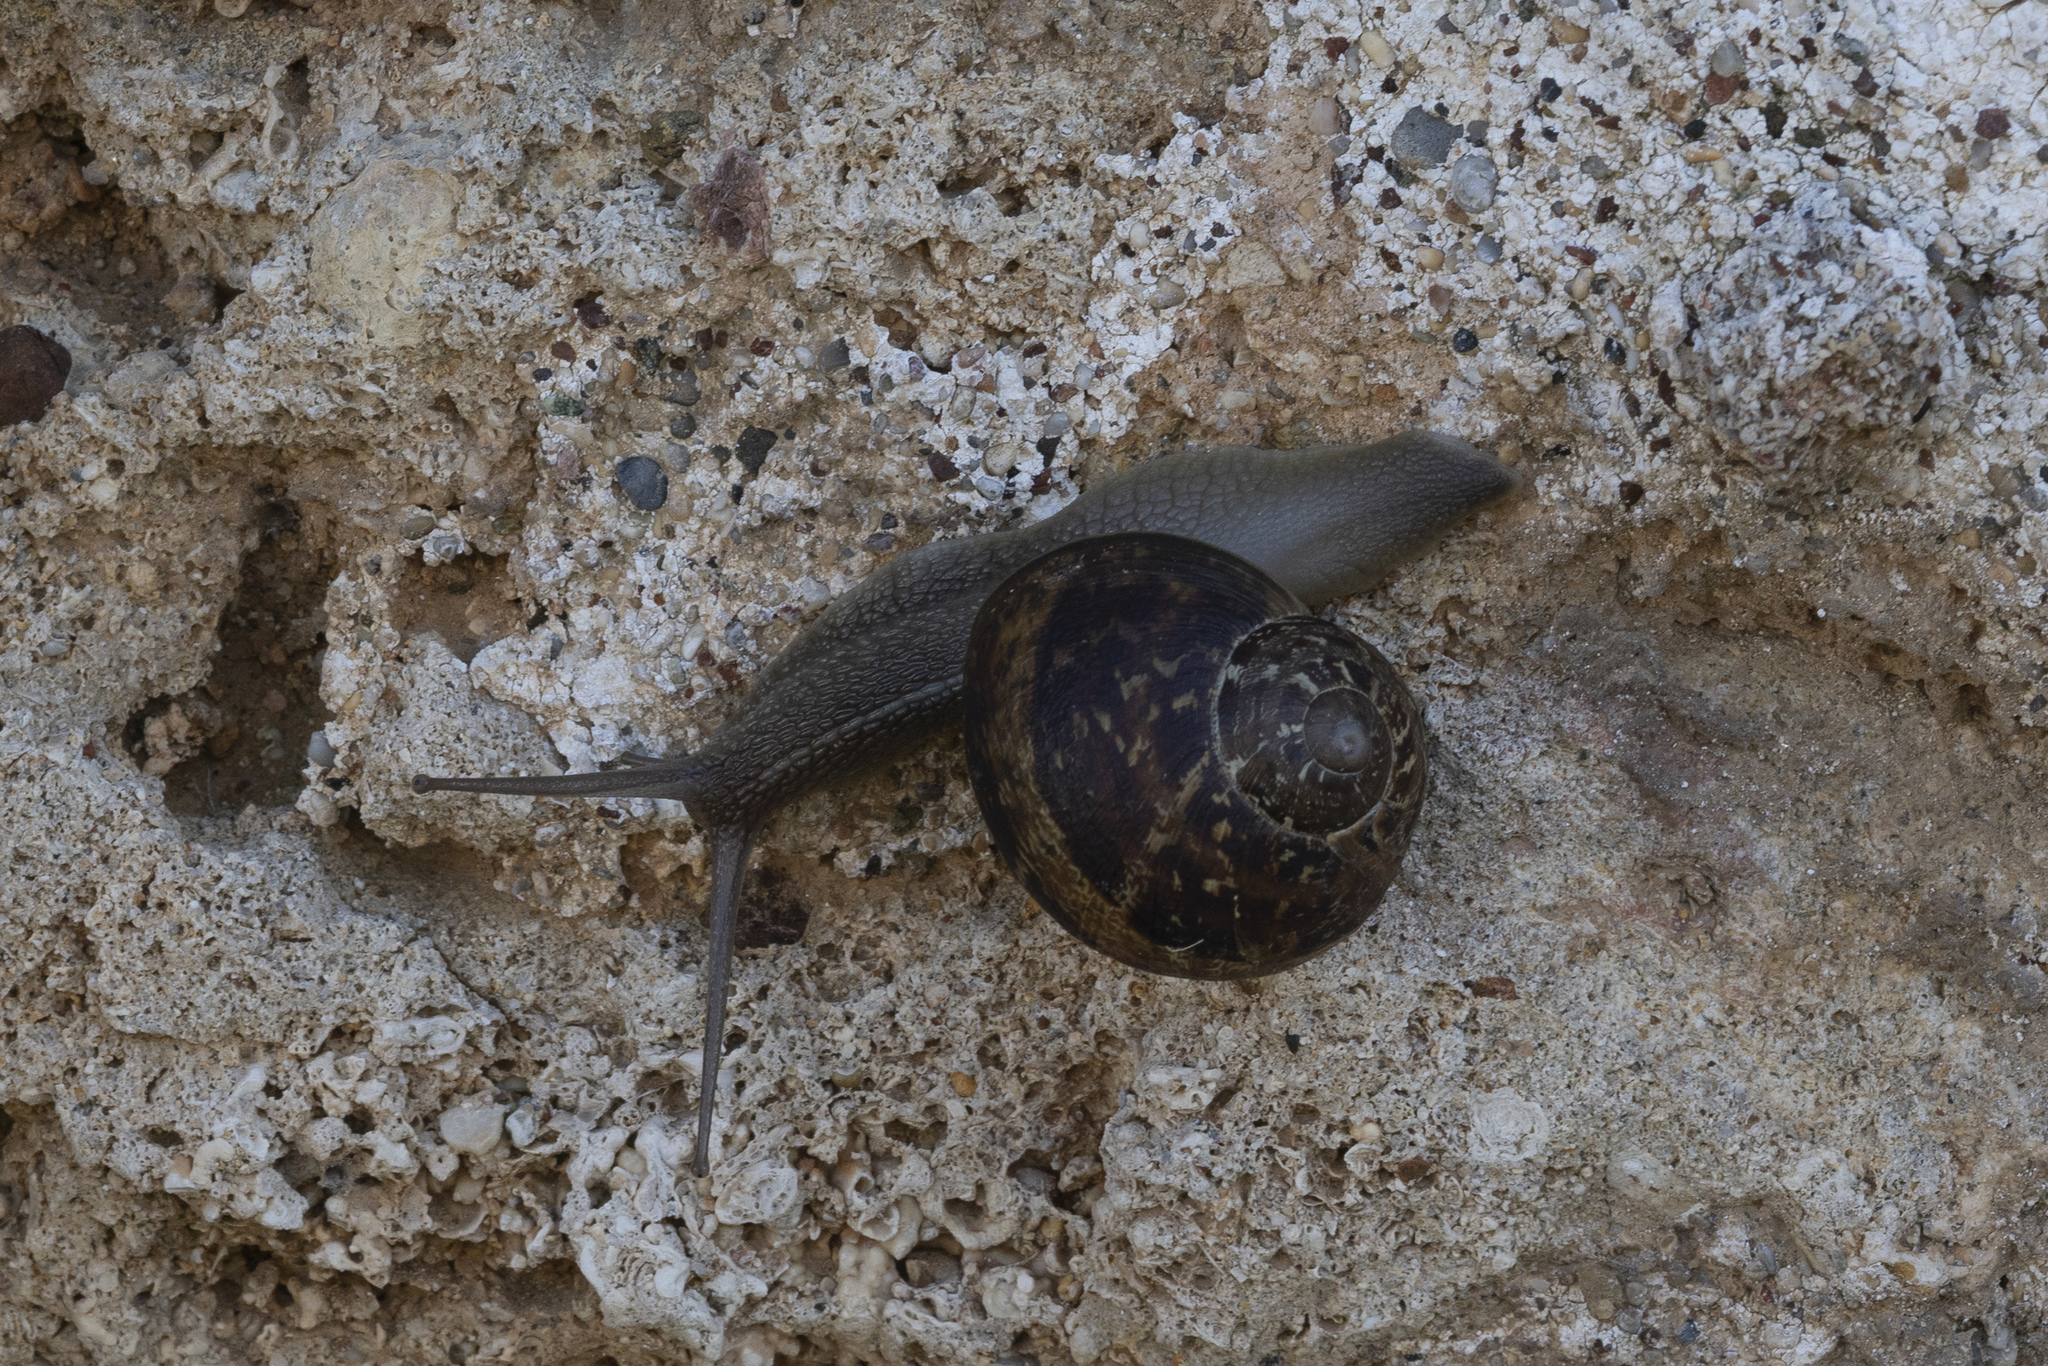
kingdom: Animalia
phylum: Mollusca
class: Gastropoda
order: Stylommatophora
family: Helicidae
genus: Cornu
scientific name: Cornu aspersum
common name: Brown garden snail
